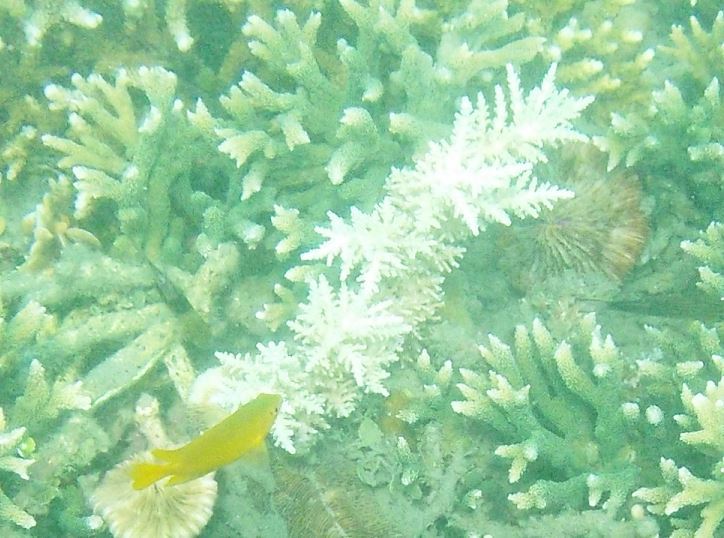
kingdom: Animalia
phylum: Chordata
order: Perciformes
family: Pomacentridae
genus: Pomacentrus
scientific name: Pomacentrus moluccensis
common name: Lemon damsel
